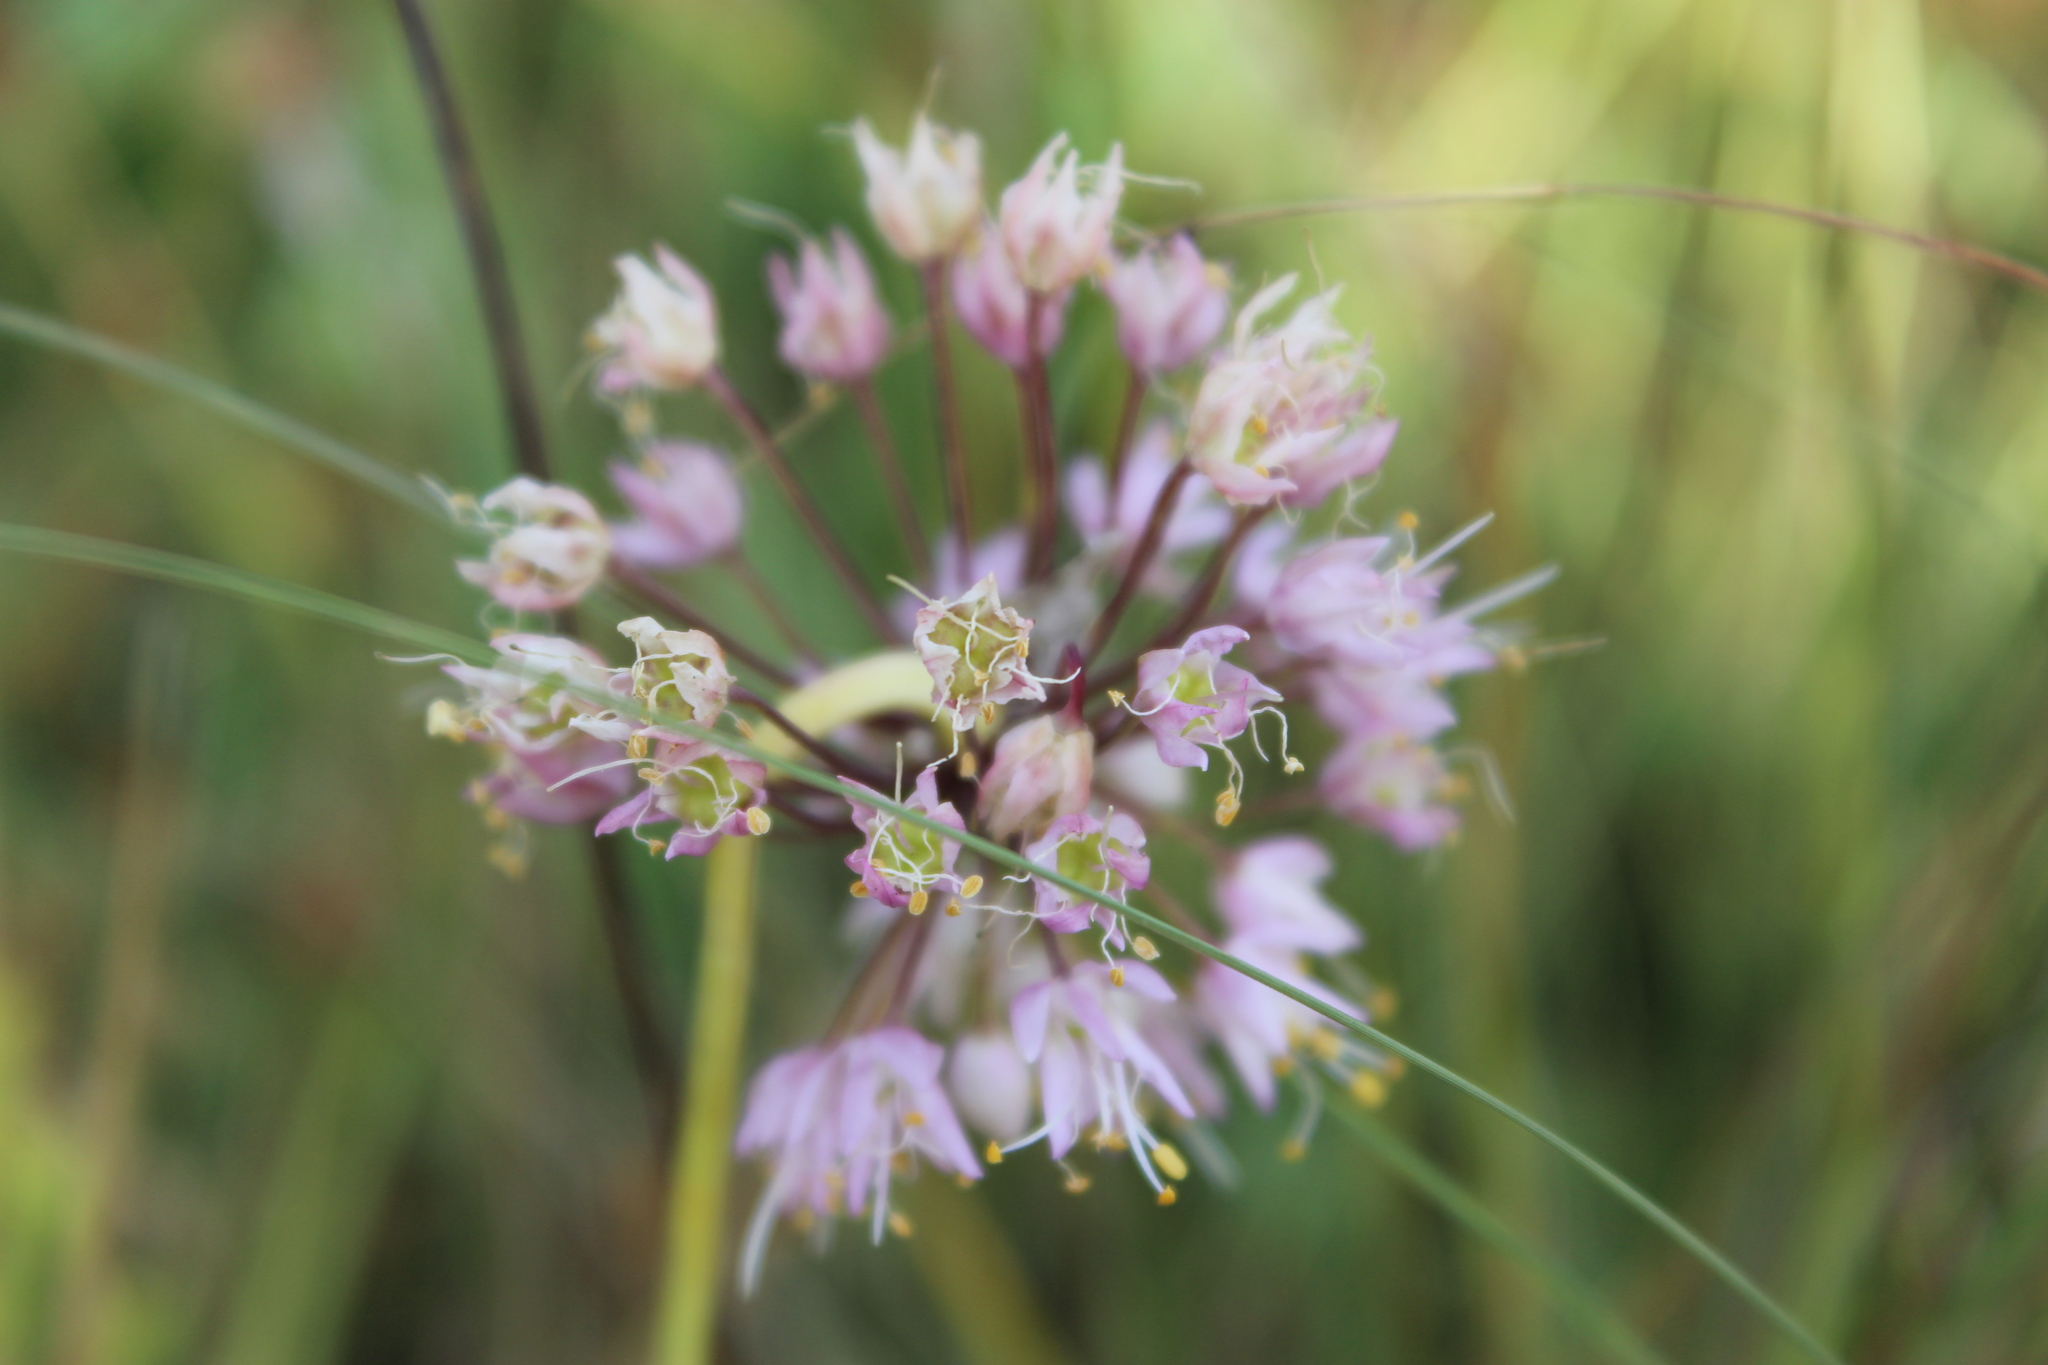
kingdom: Plantae
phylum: Tracheophyta
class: Liliopsida
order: Asparagales
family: Amaryllidaceae
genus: Allium
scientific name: Allium cernuum
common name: Nodding onion
